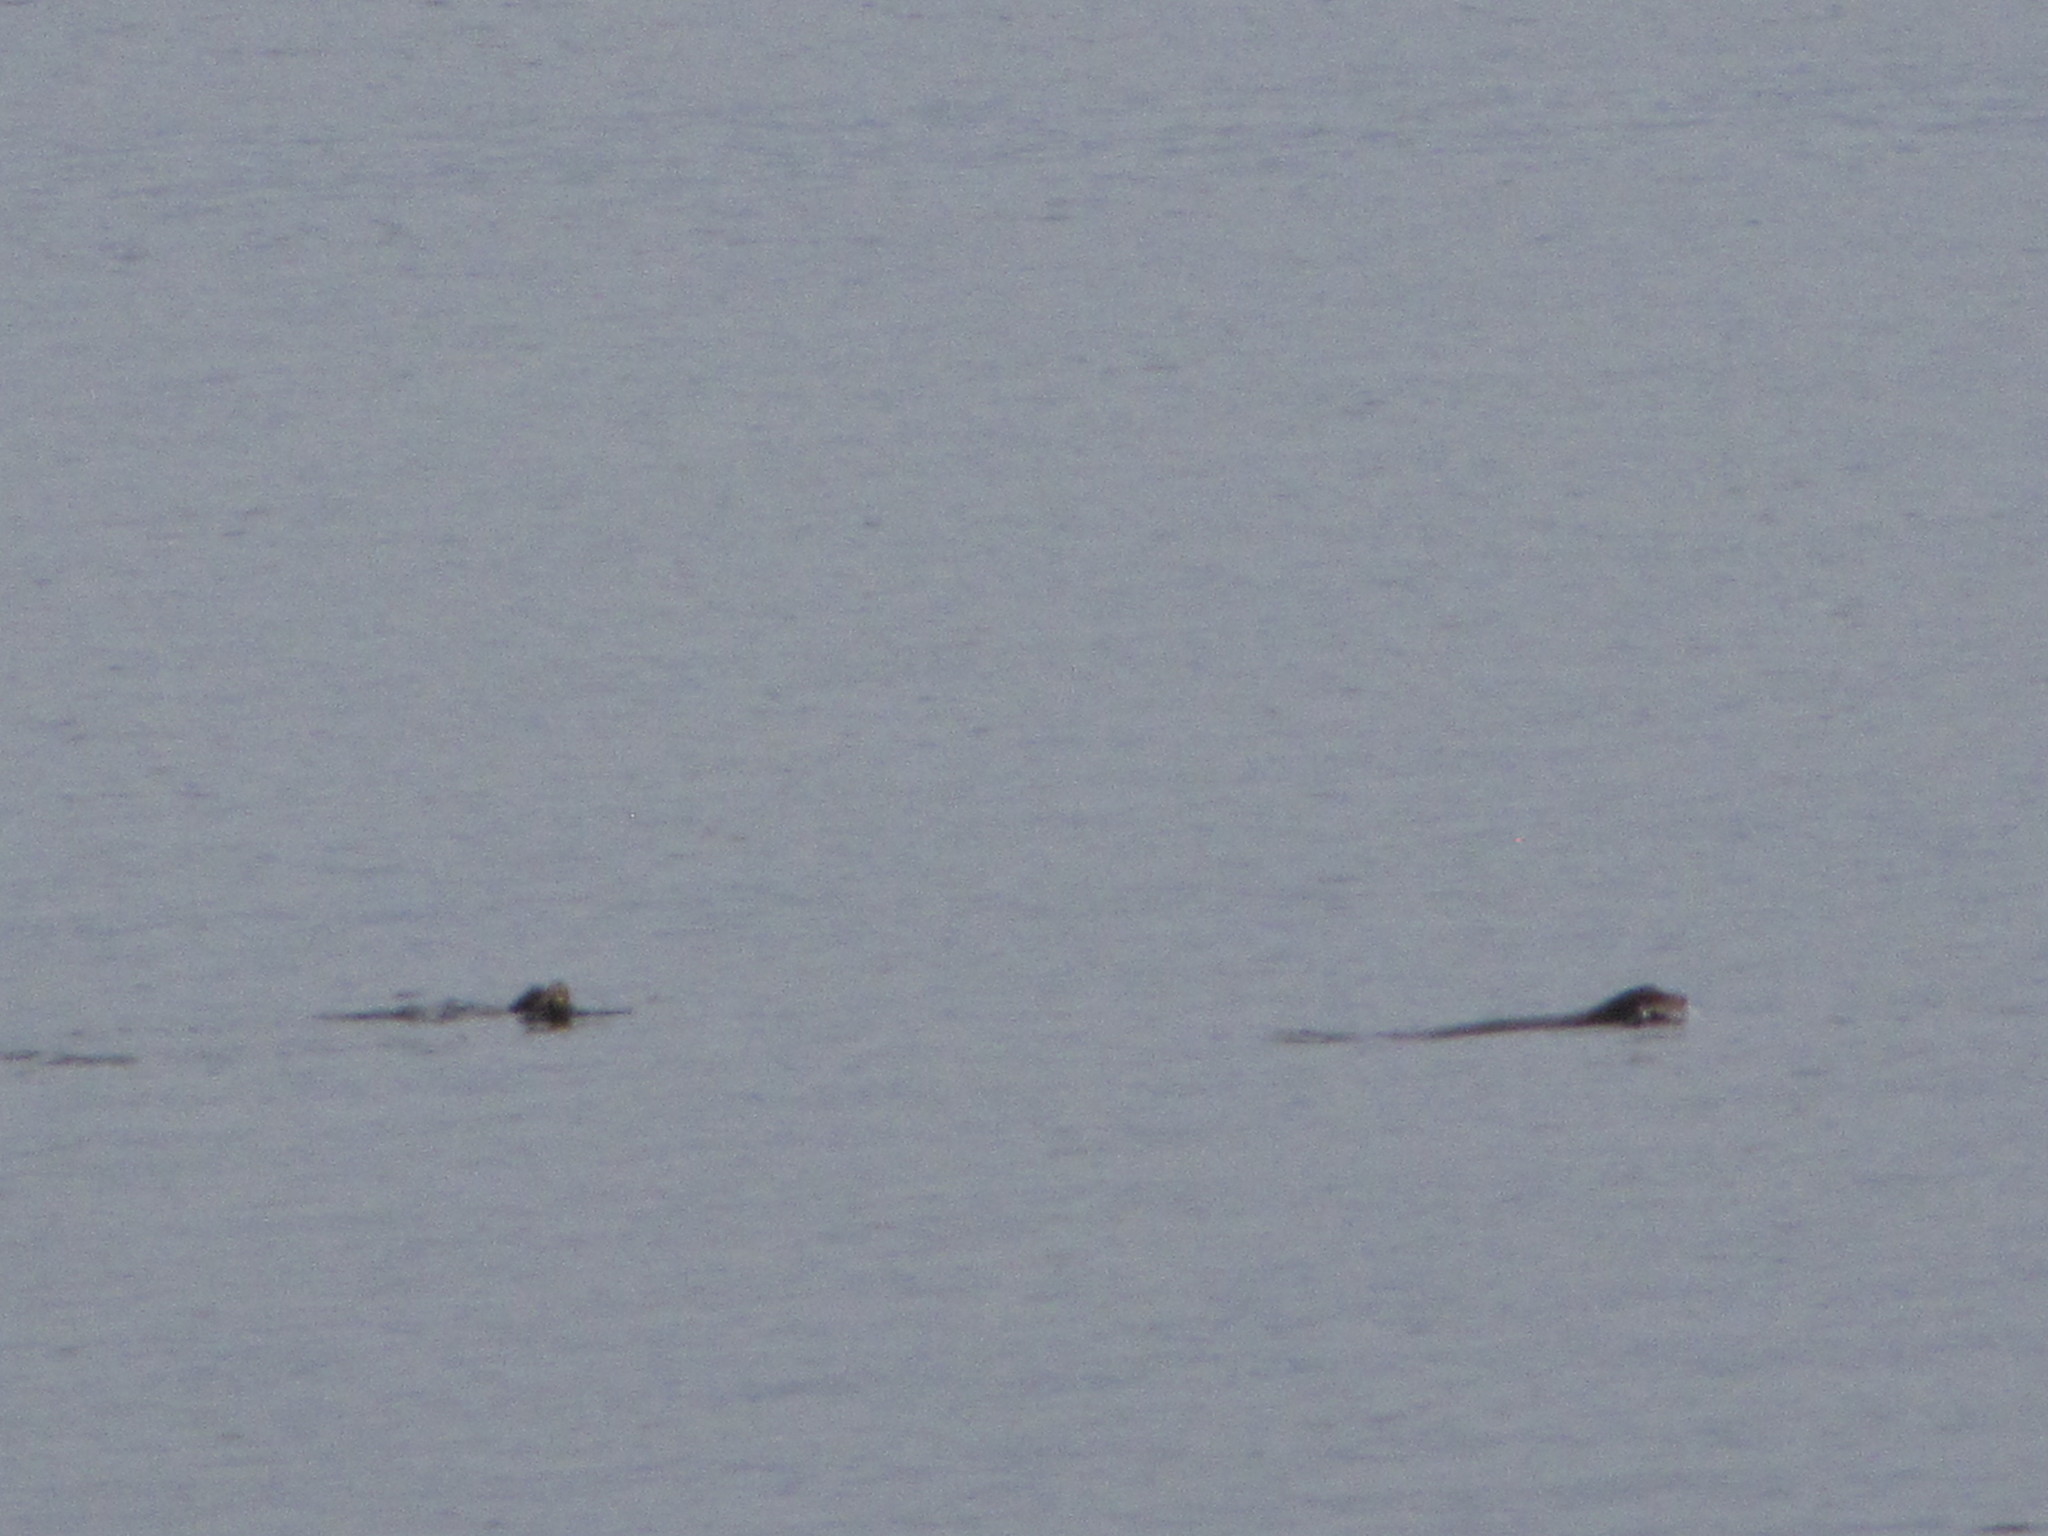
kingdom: Animalia
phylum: Chordata
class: Mammalia
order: Carnivora
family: Otariidae
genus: Zalophus
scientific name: Zalophus californianus
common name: California sea lion
